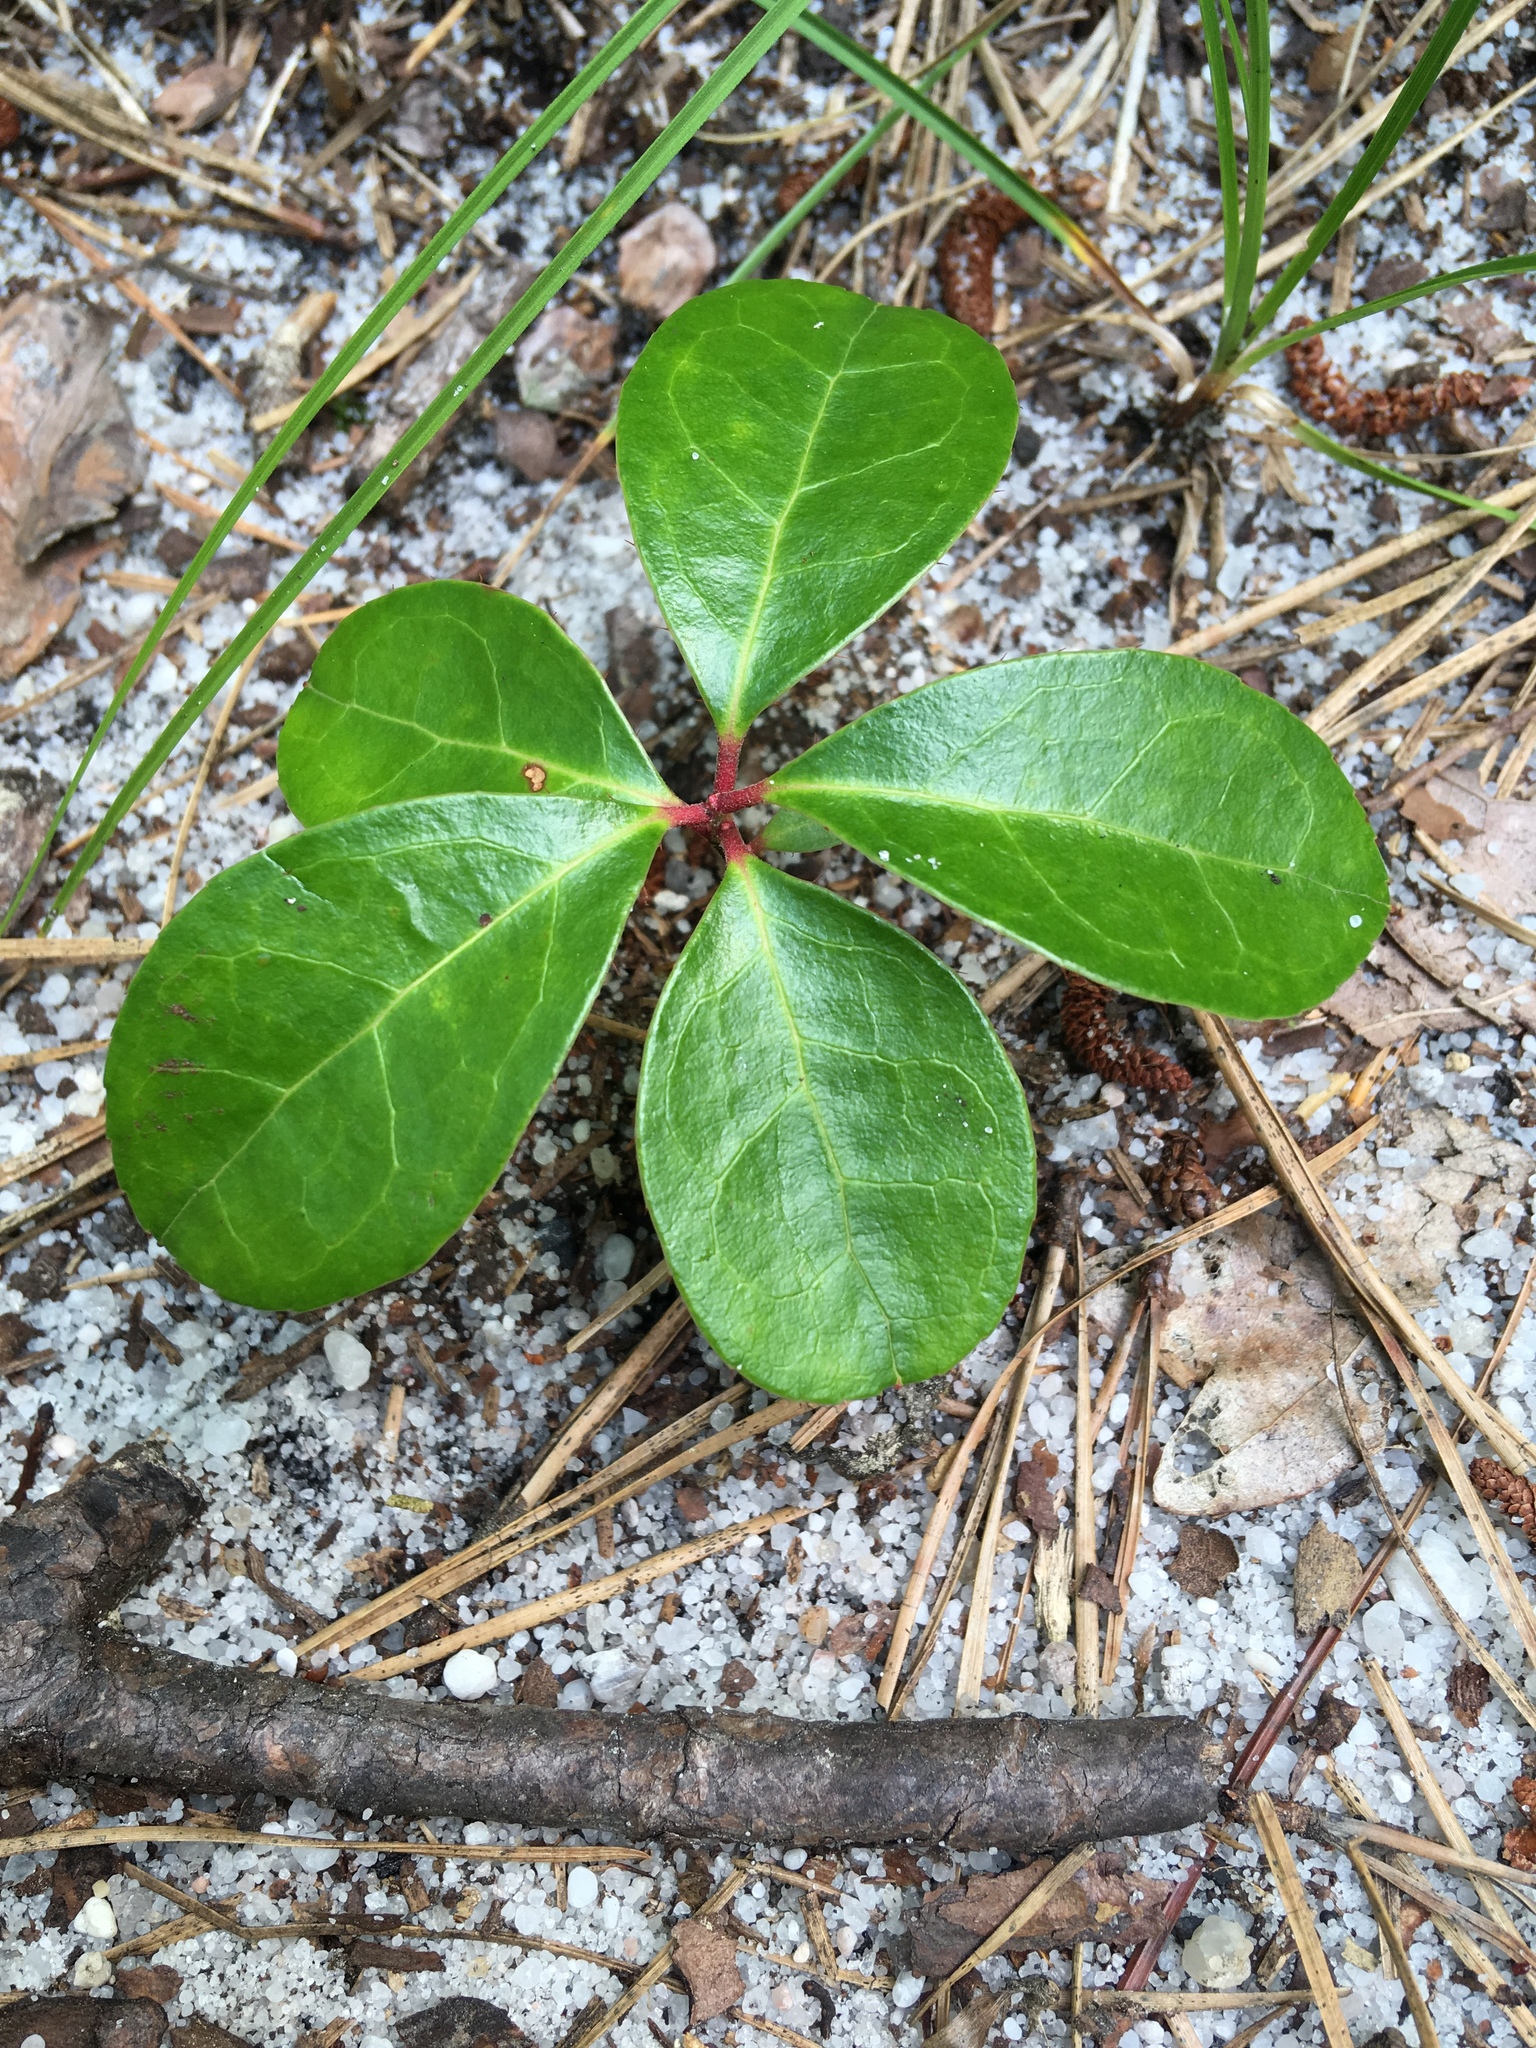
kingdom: Plantae
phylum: Tracheophyta
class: Magnoliopsida
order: Ericales
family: Ericaceae
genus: Gaultheria
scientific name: Gaultheria procumbens
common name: Checkerberry
